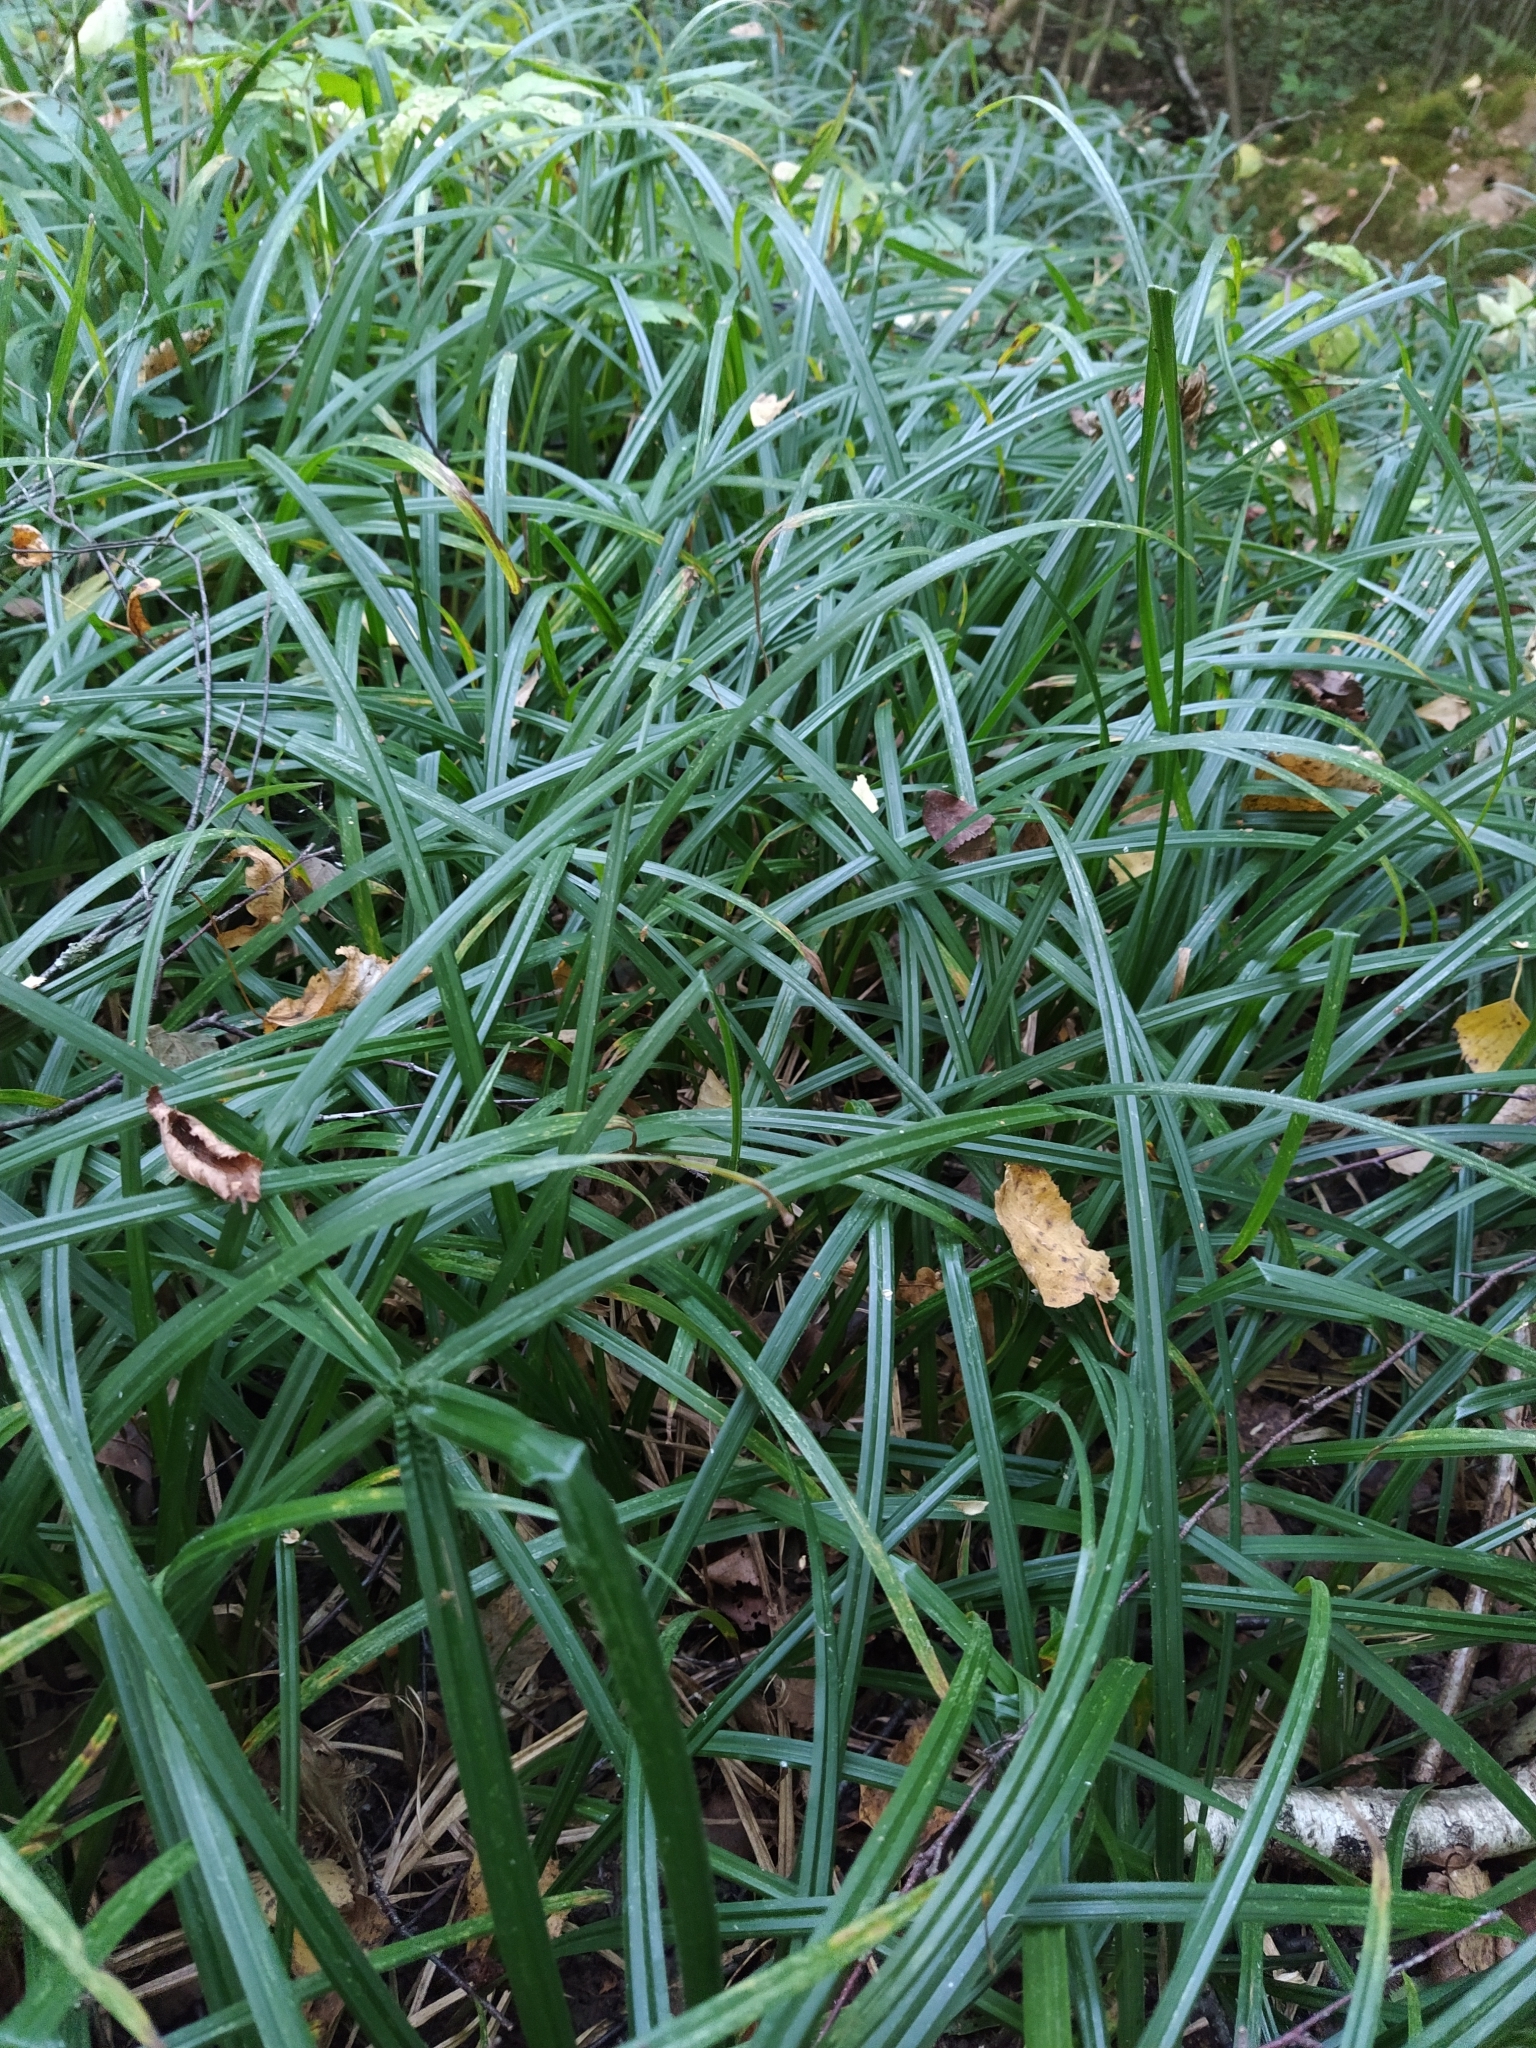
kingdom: Plantae
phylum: Tracheophyta
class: Liliopsida
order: Poales
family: Cyperaceae
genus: Carex
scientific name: Carex pilosa
